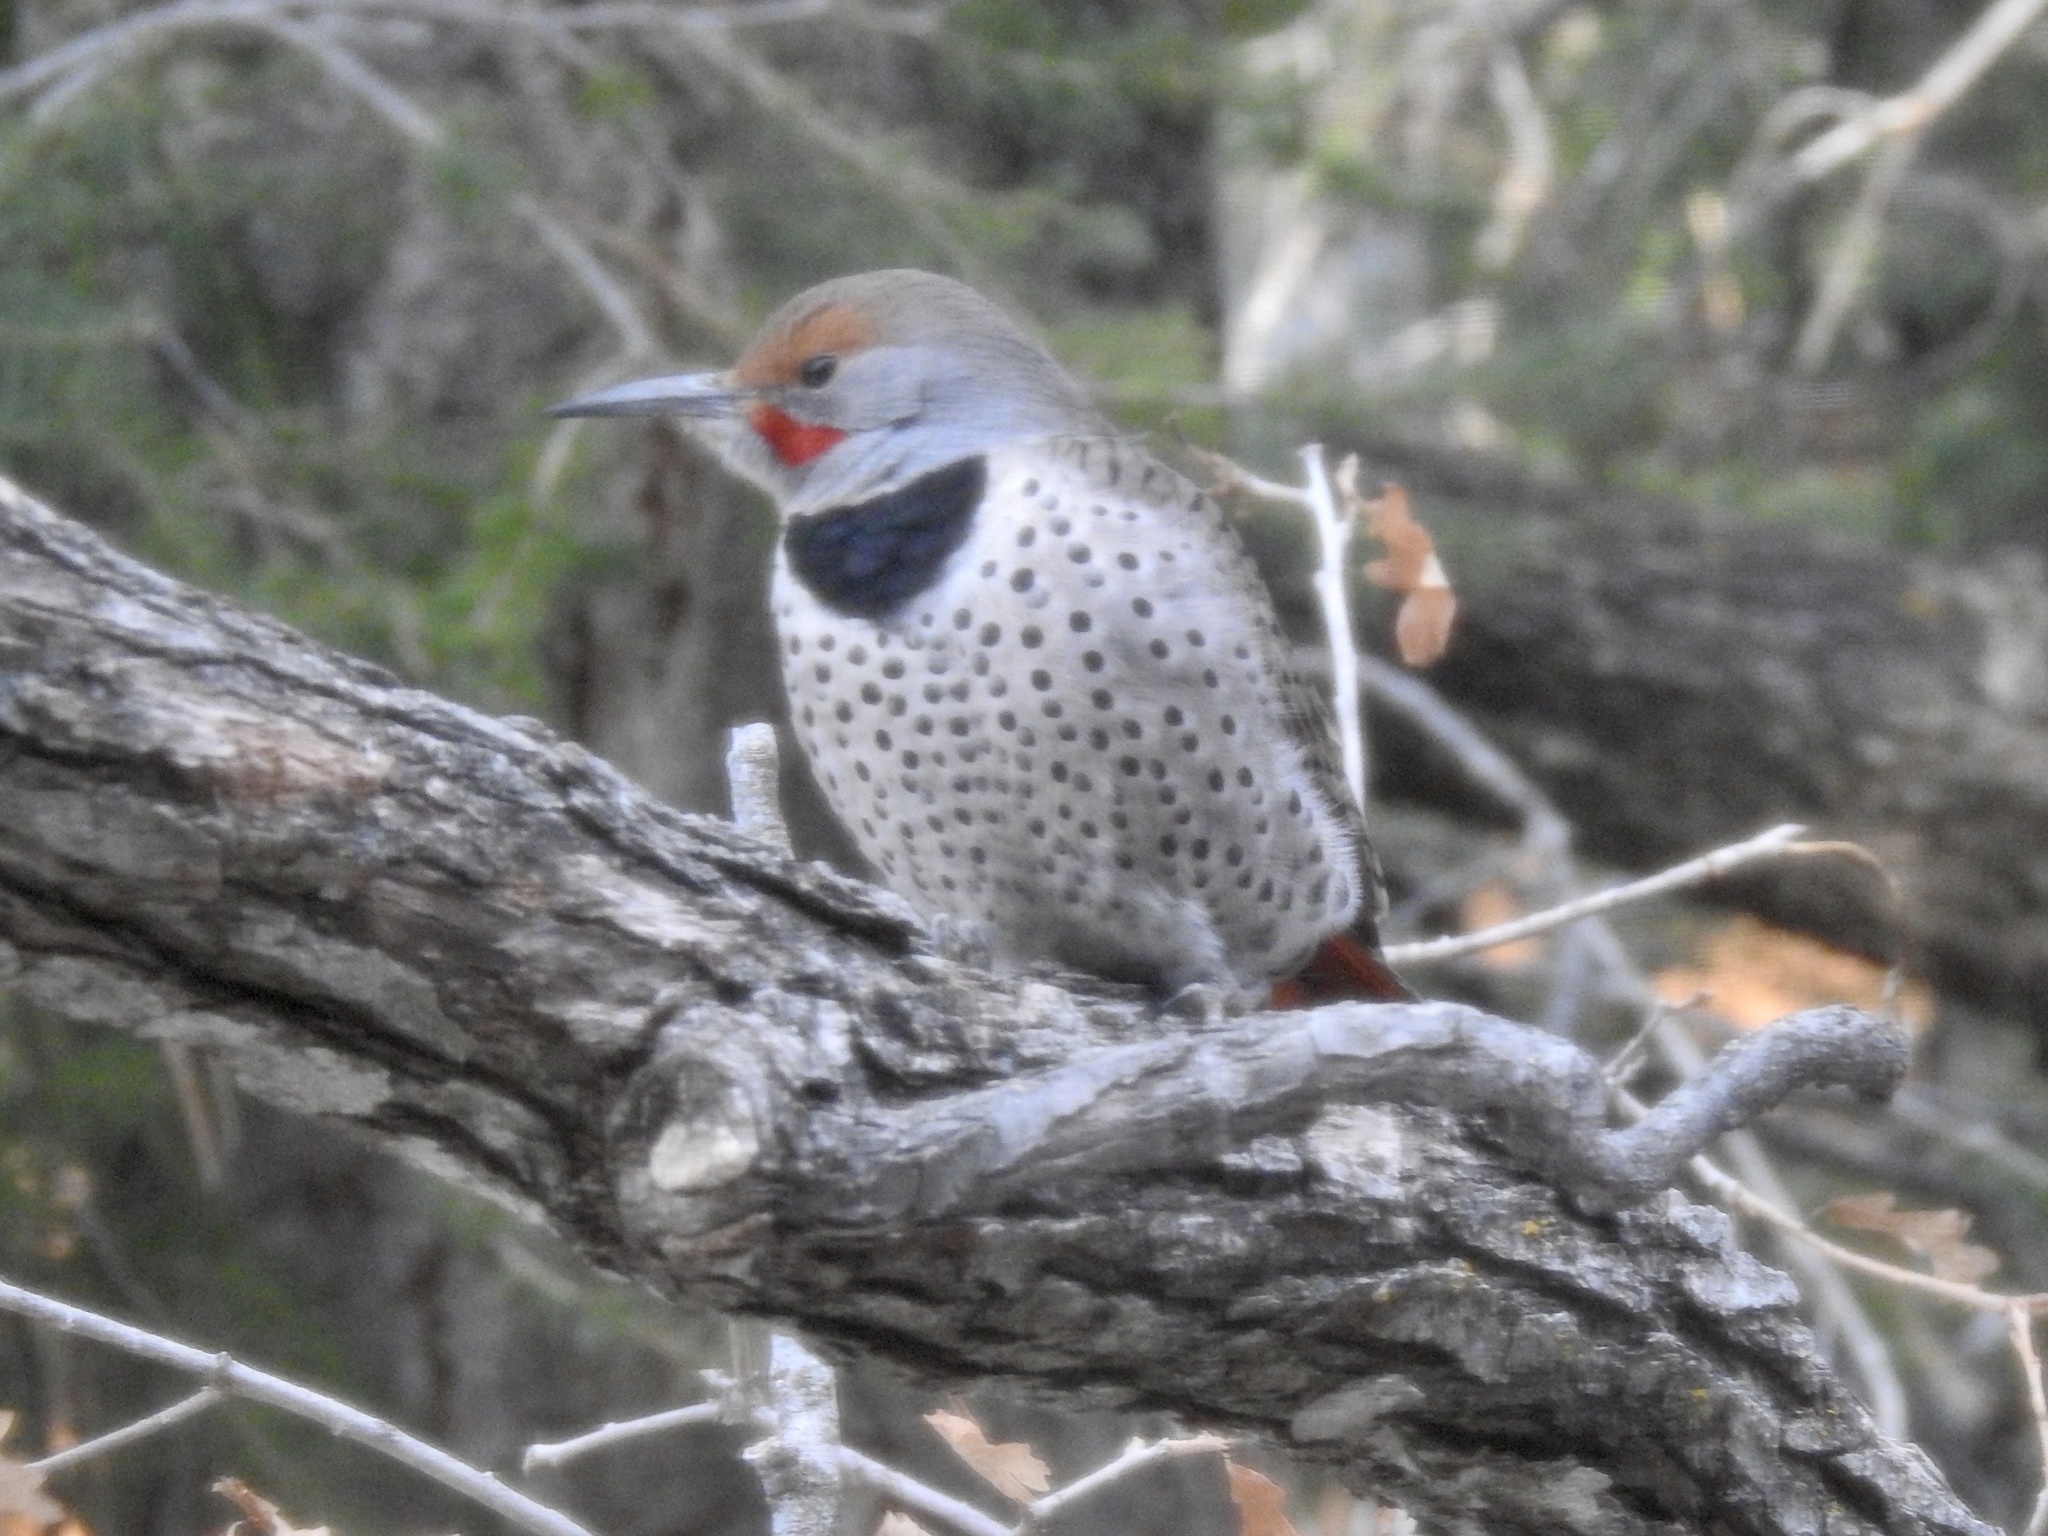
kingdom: Animalia
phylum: Chordata
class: Aves
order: Piciformes
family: Picidae
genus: Colaptes
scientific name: Colaptes auratus
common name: Northern flicker
